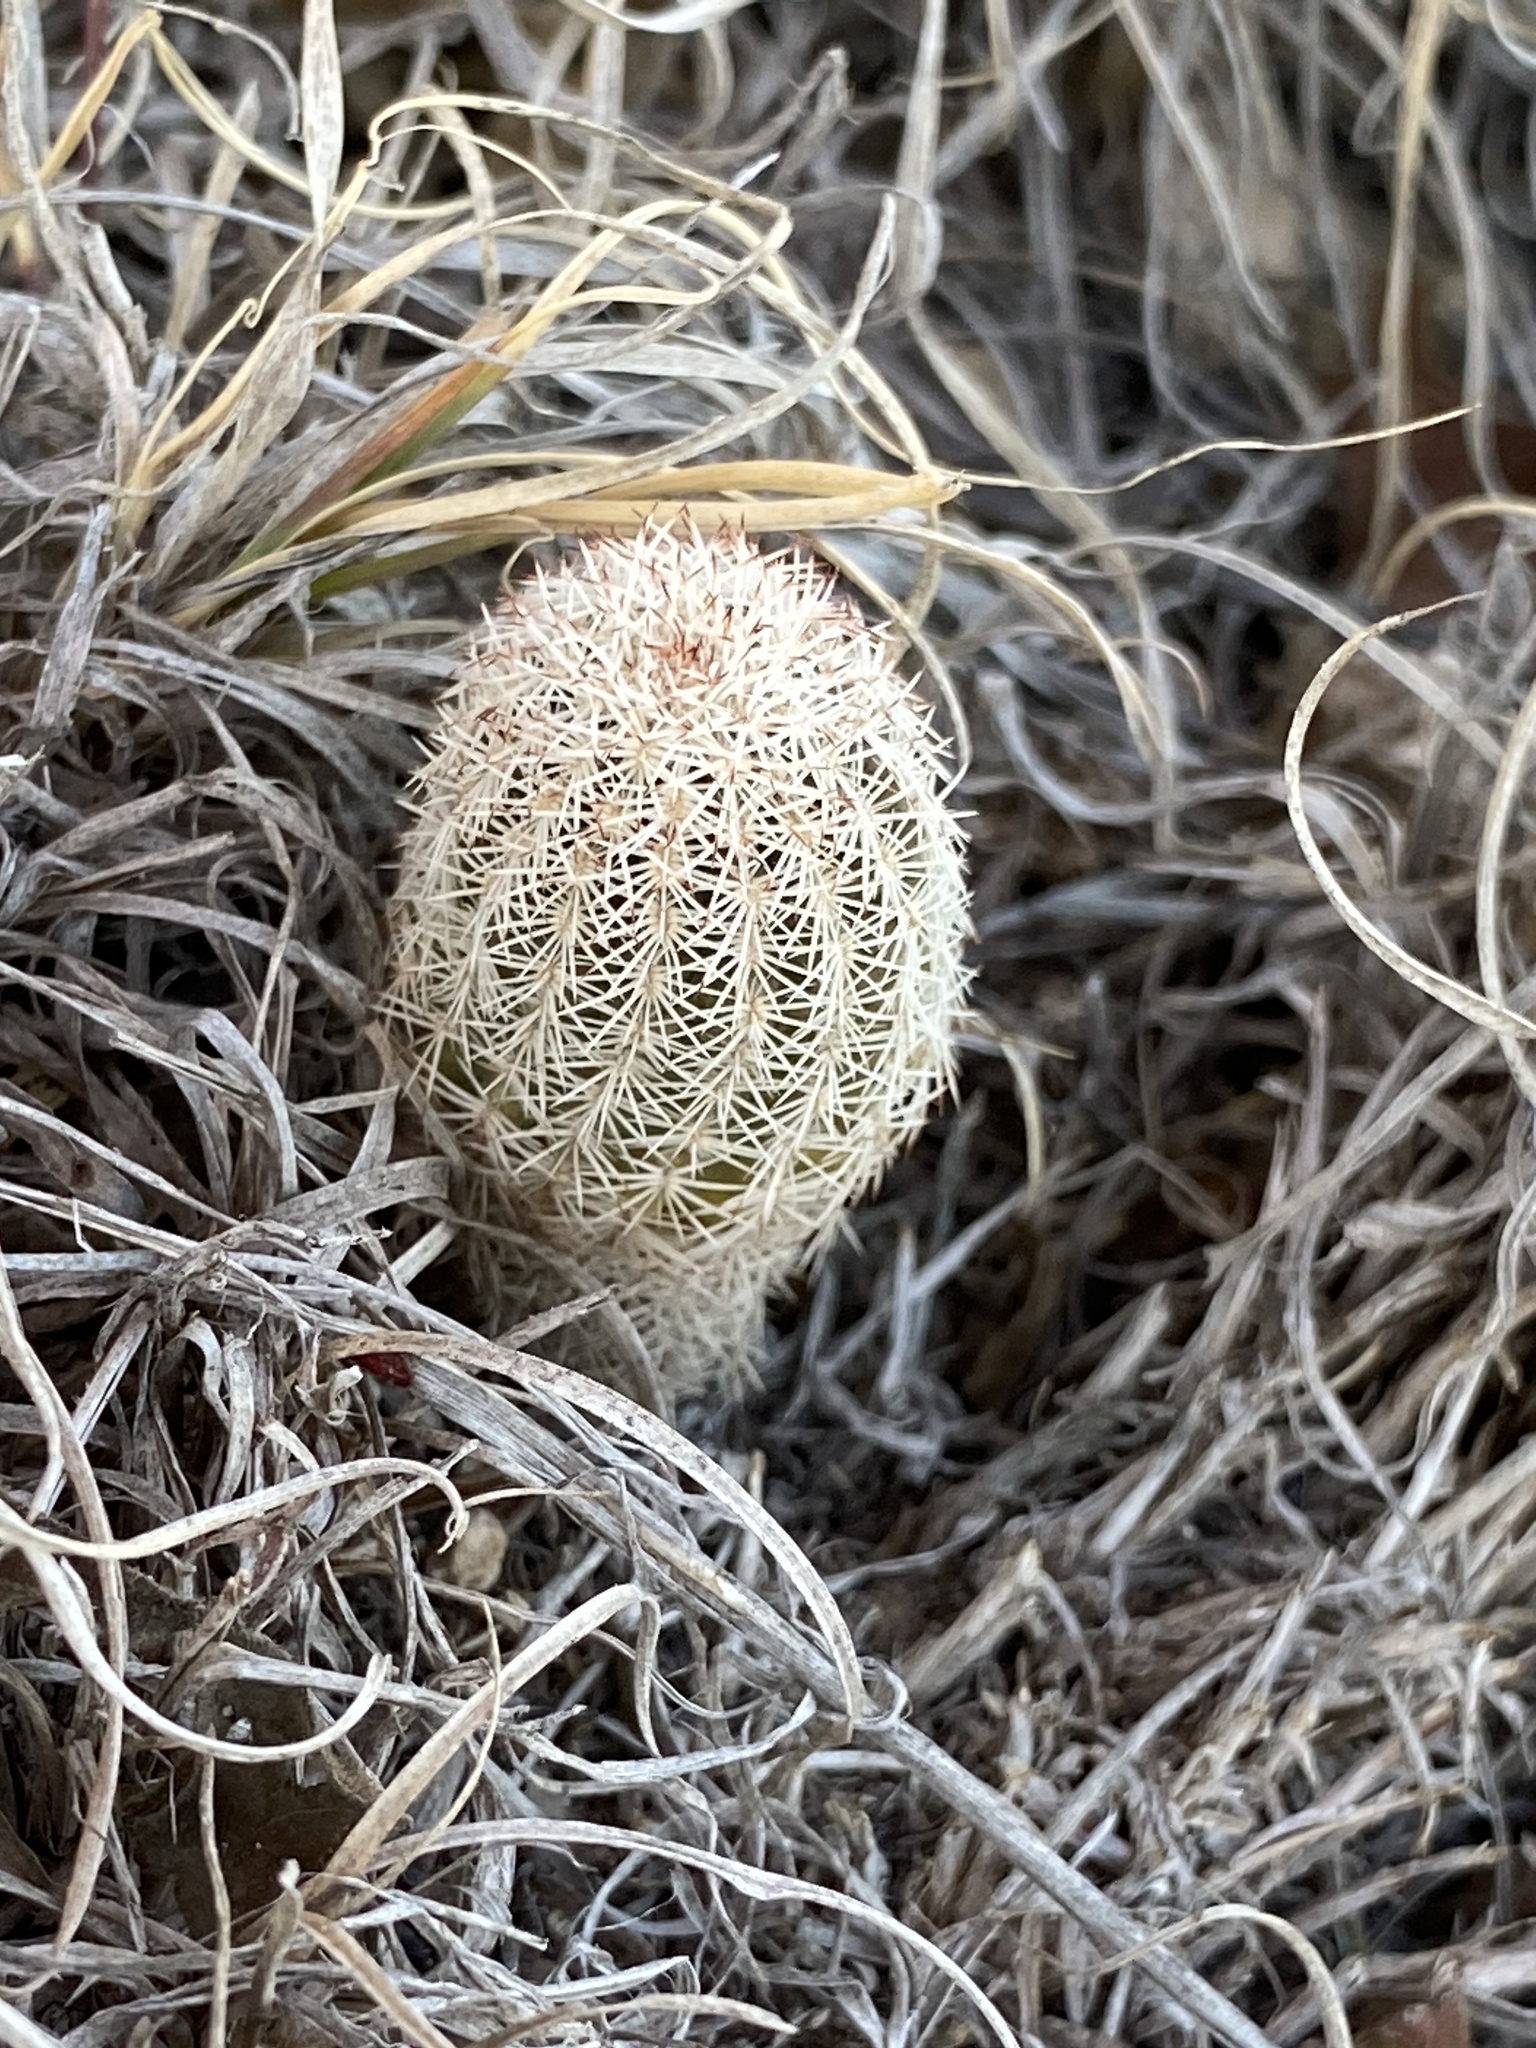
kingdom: Plantae
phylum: Tracheophyta
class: Magnoliopsida
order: Caryophyllales
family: Cactaceae
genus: Echinocereus
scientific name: Echinocereus reichenbachii
